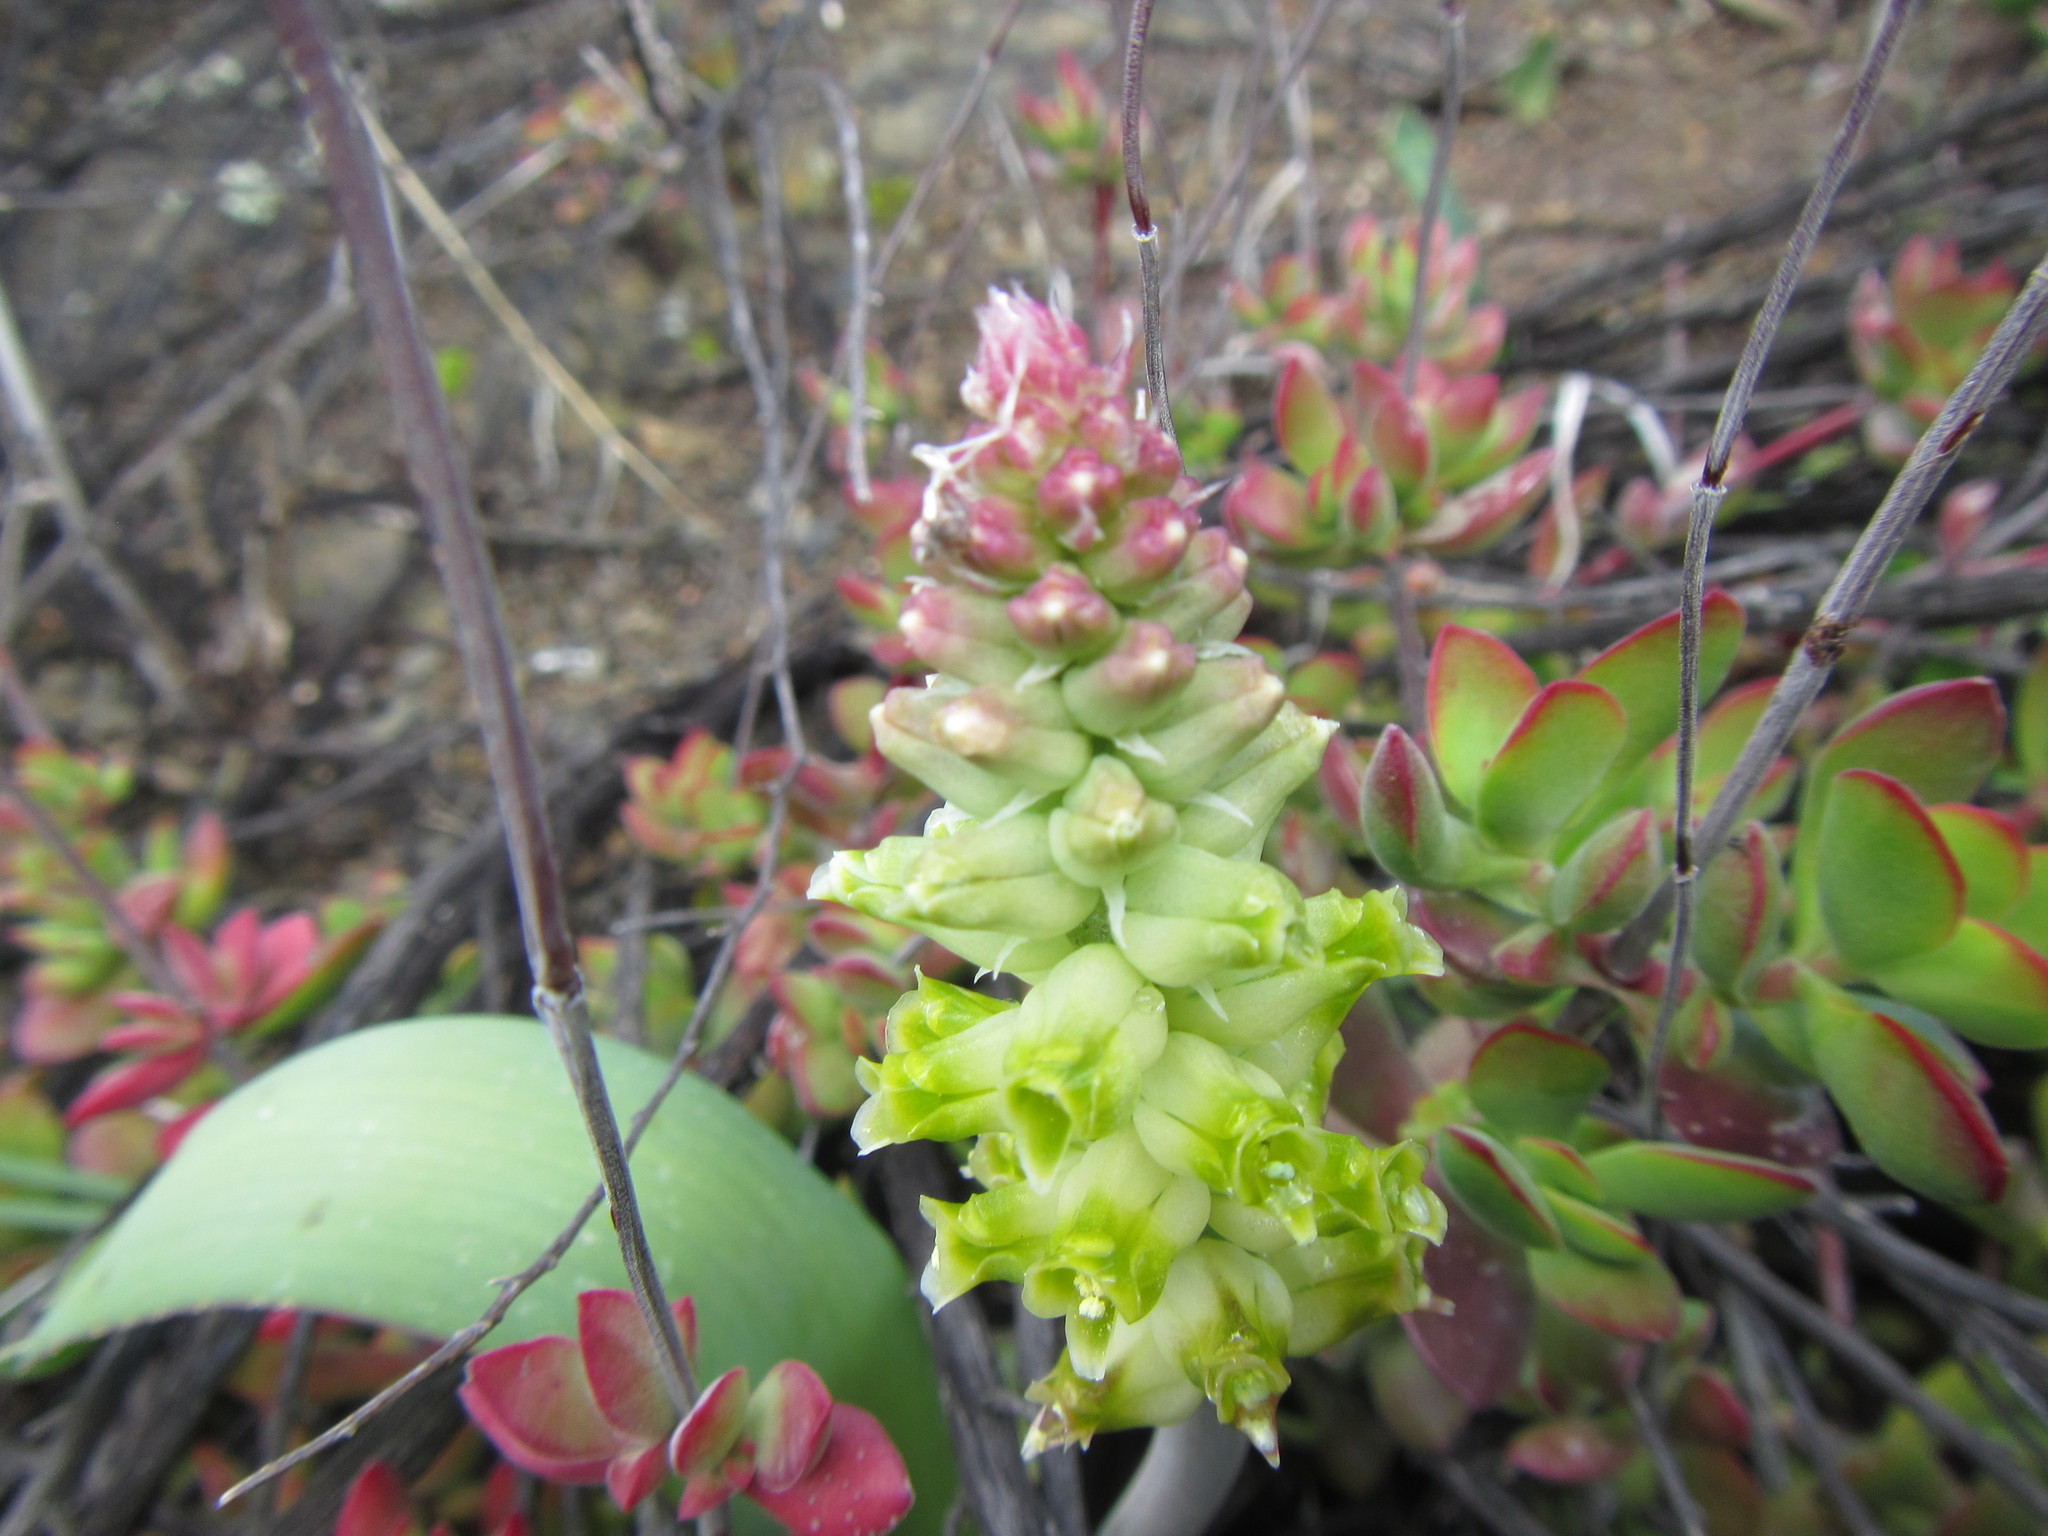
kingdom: Plantae
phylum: Tracheophyta
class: Liliopsida
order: Asparagales
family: Asparagaceae
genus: Lachenalia
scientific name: Lachenalia longibracteata
